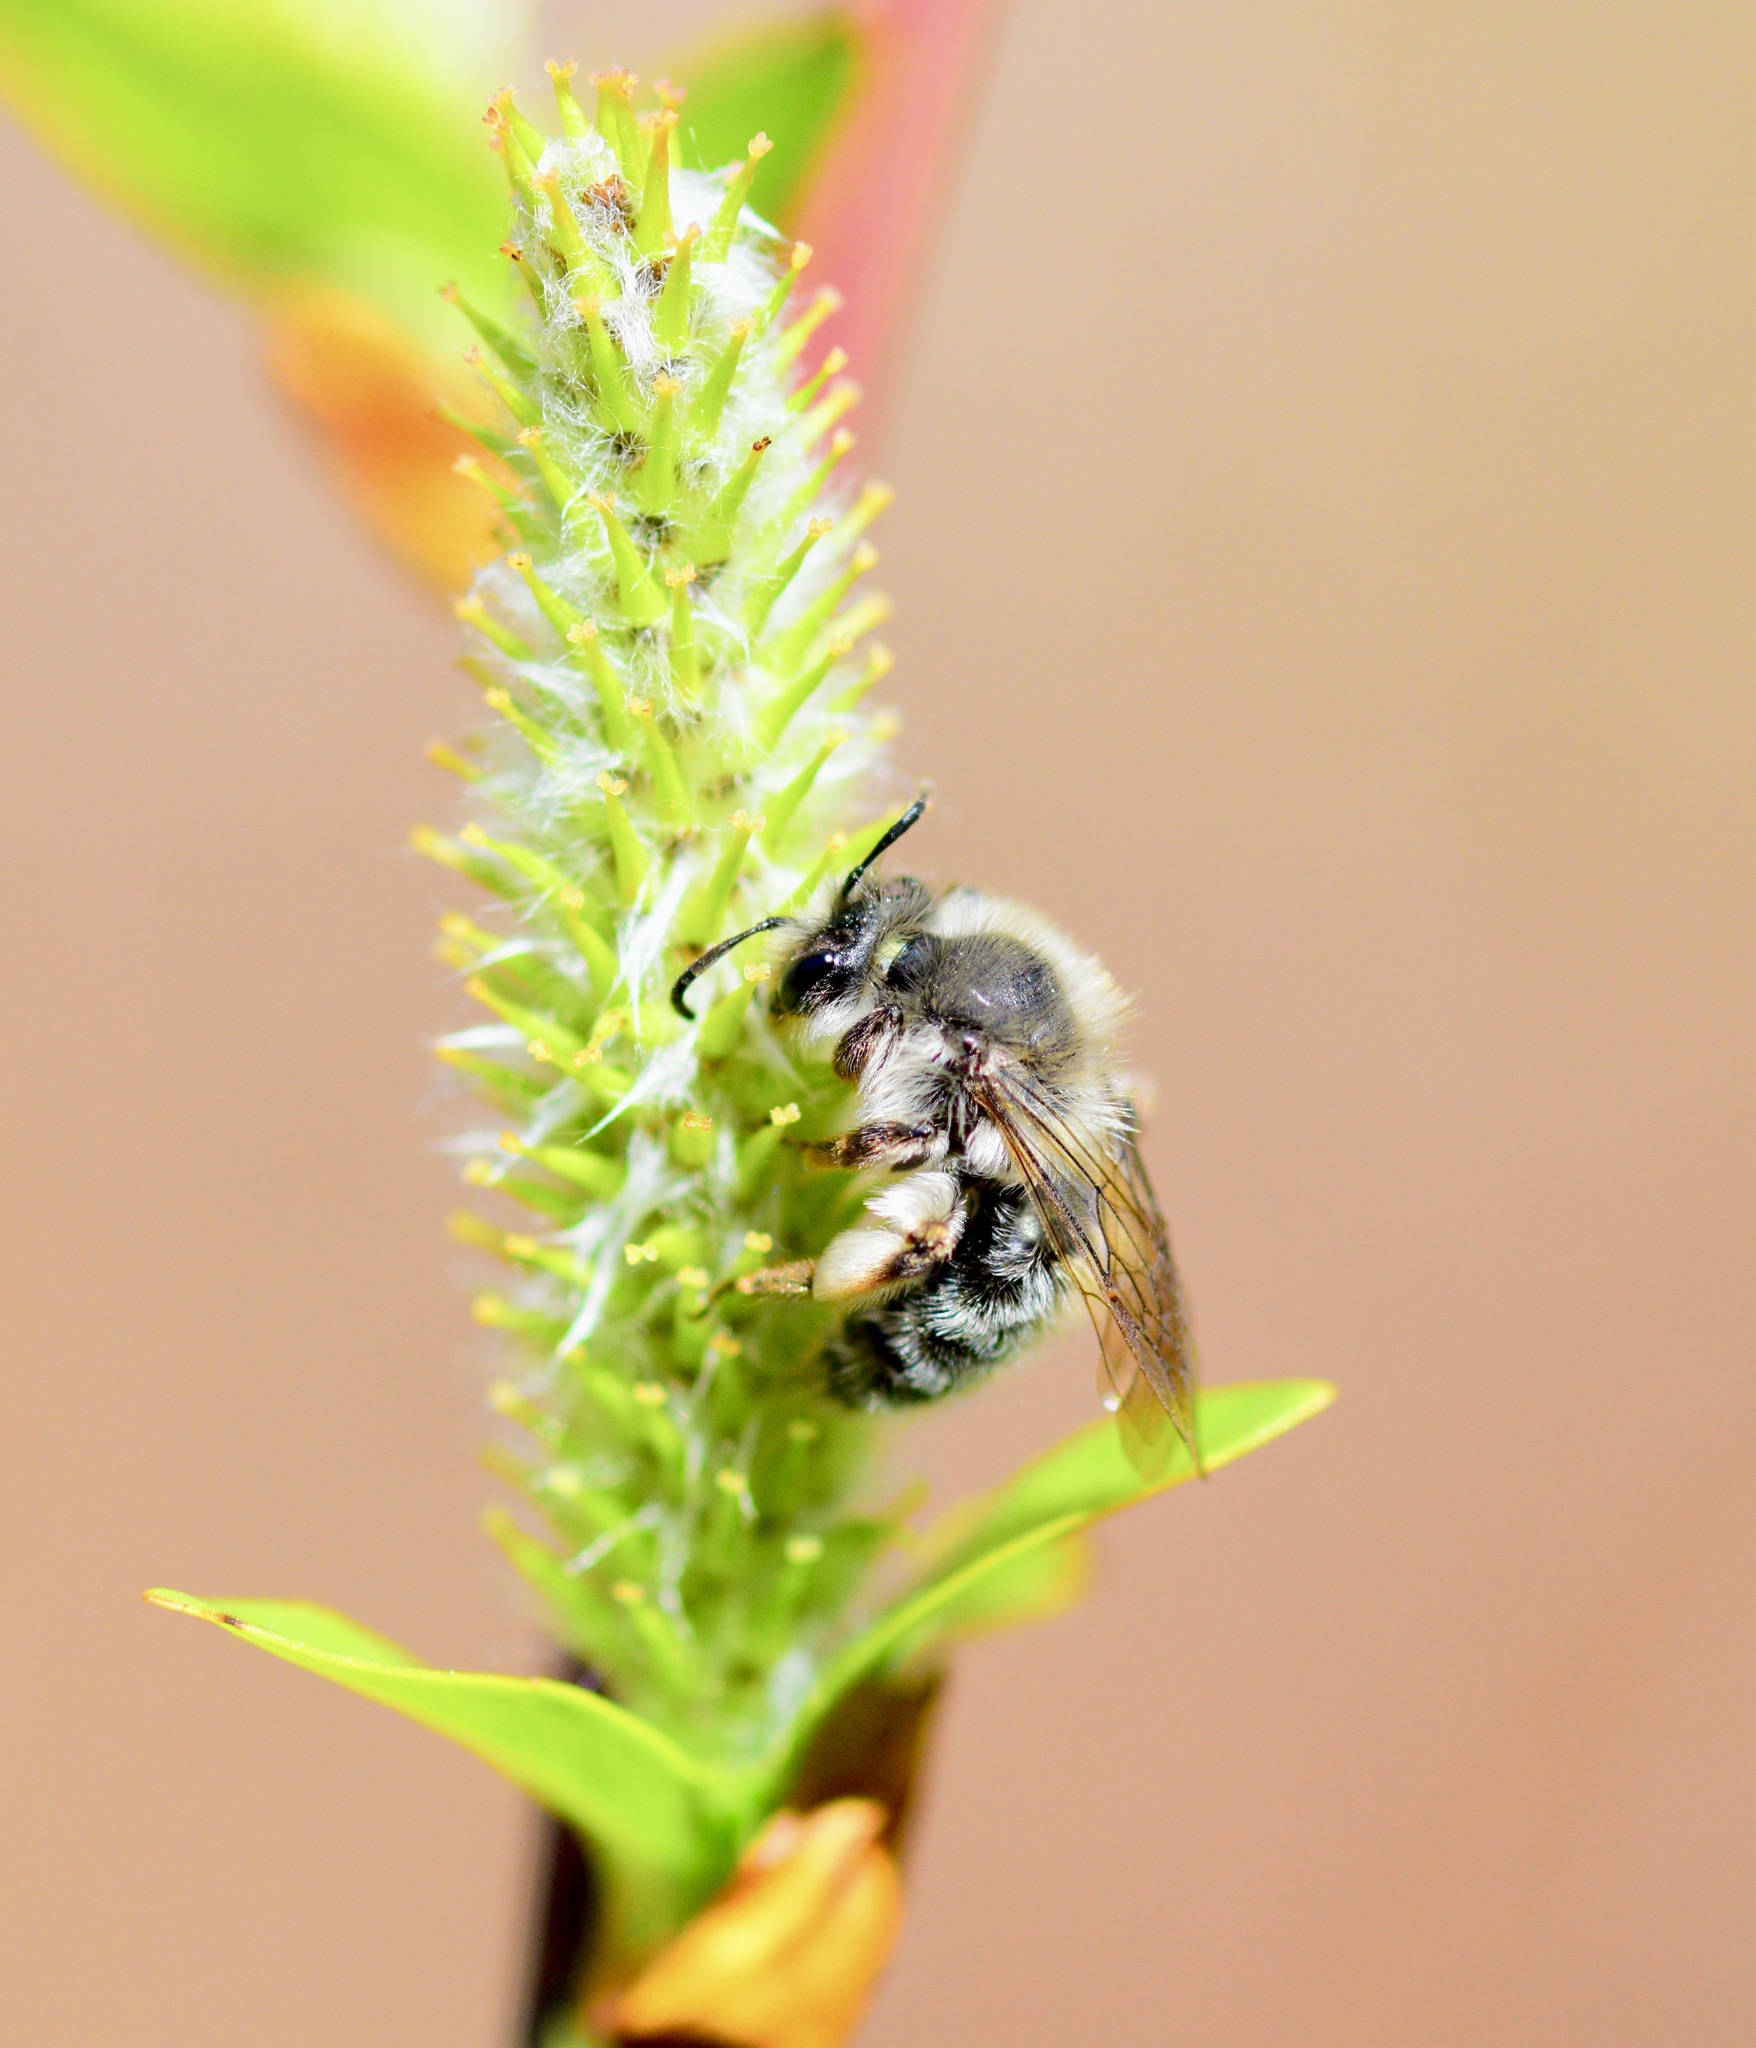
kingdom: Animalia
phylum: Arthropoda
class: Insecta
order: Hymenoptera
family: Andrenidae
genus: Andrena
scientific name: Andrena frigida
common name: Frigid mining bee
